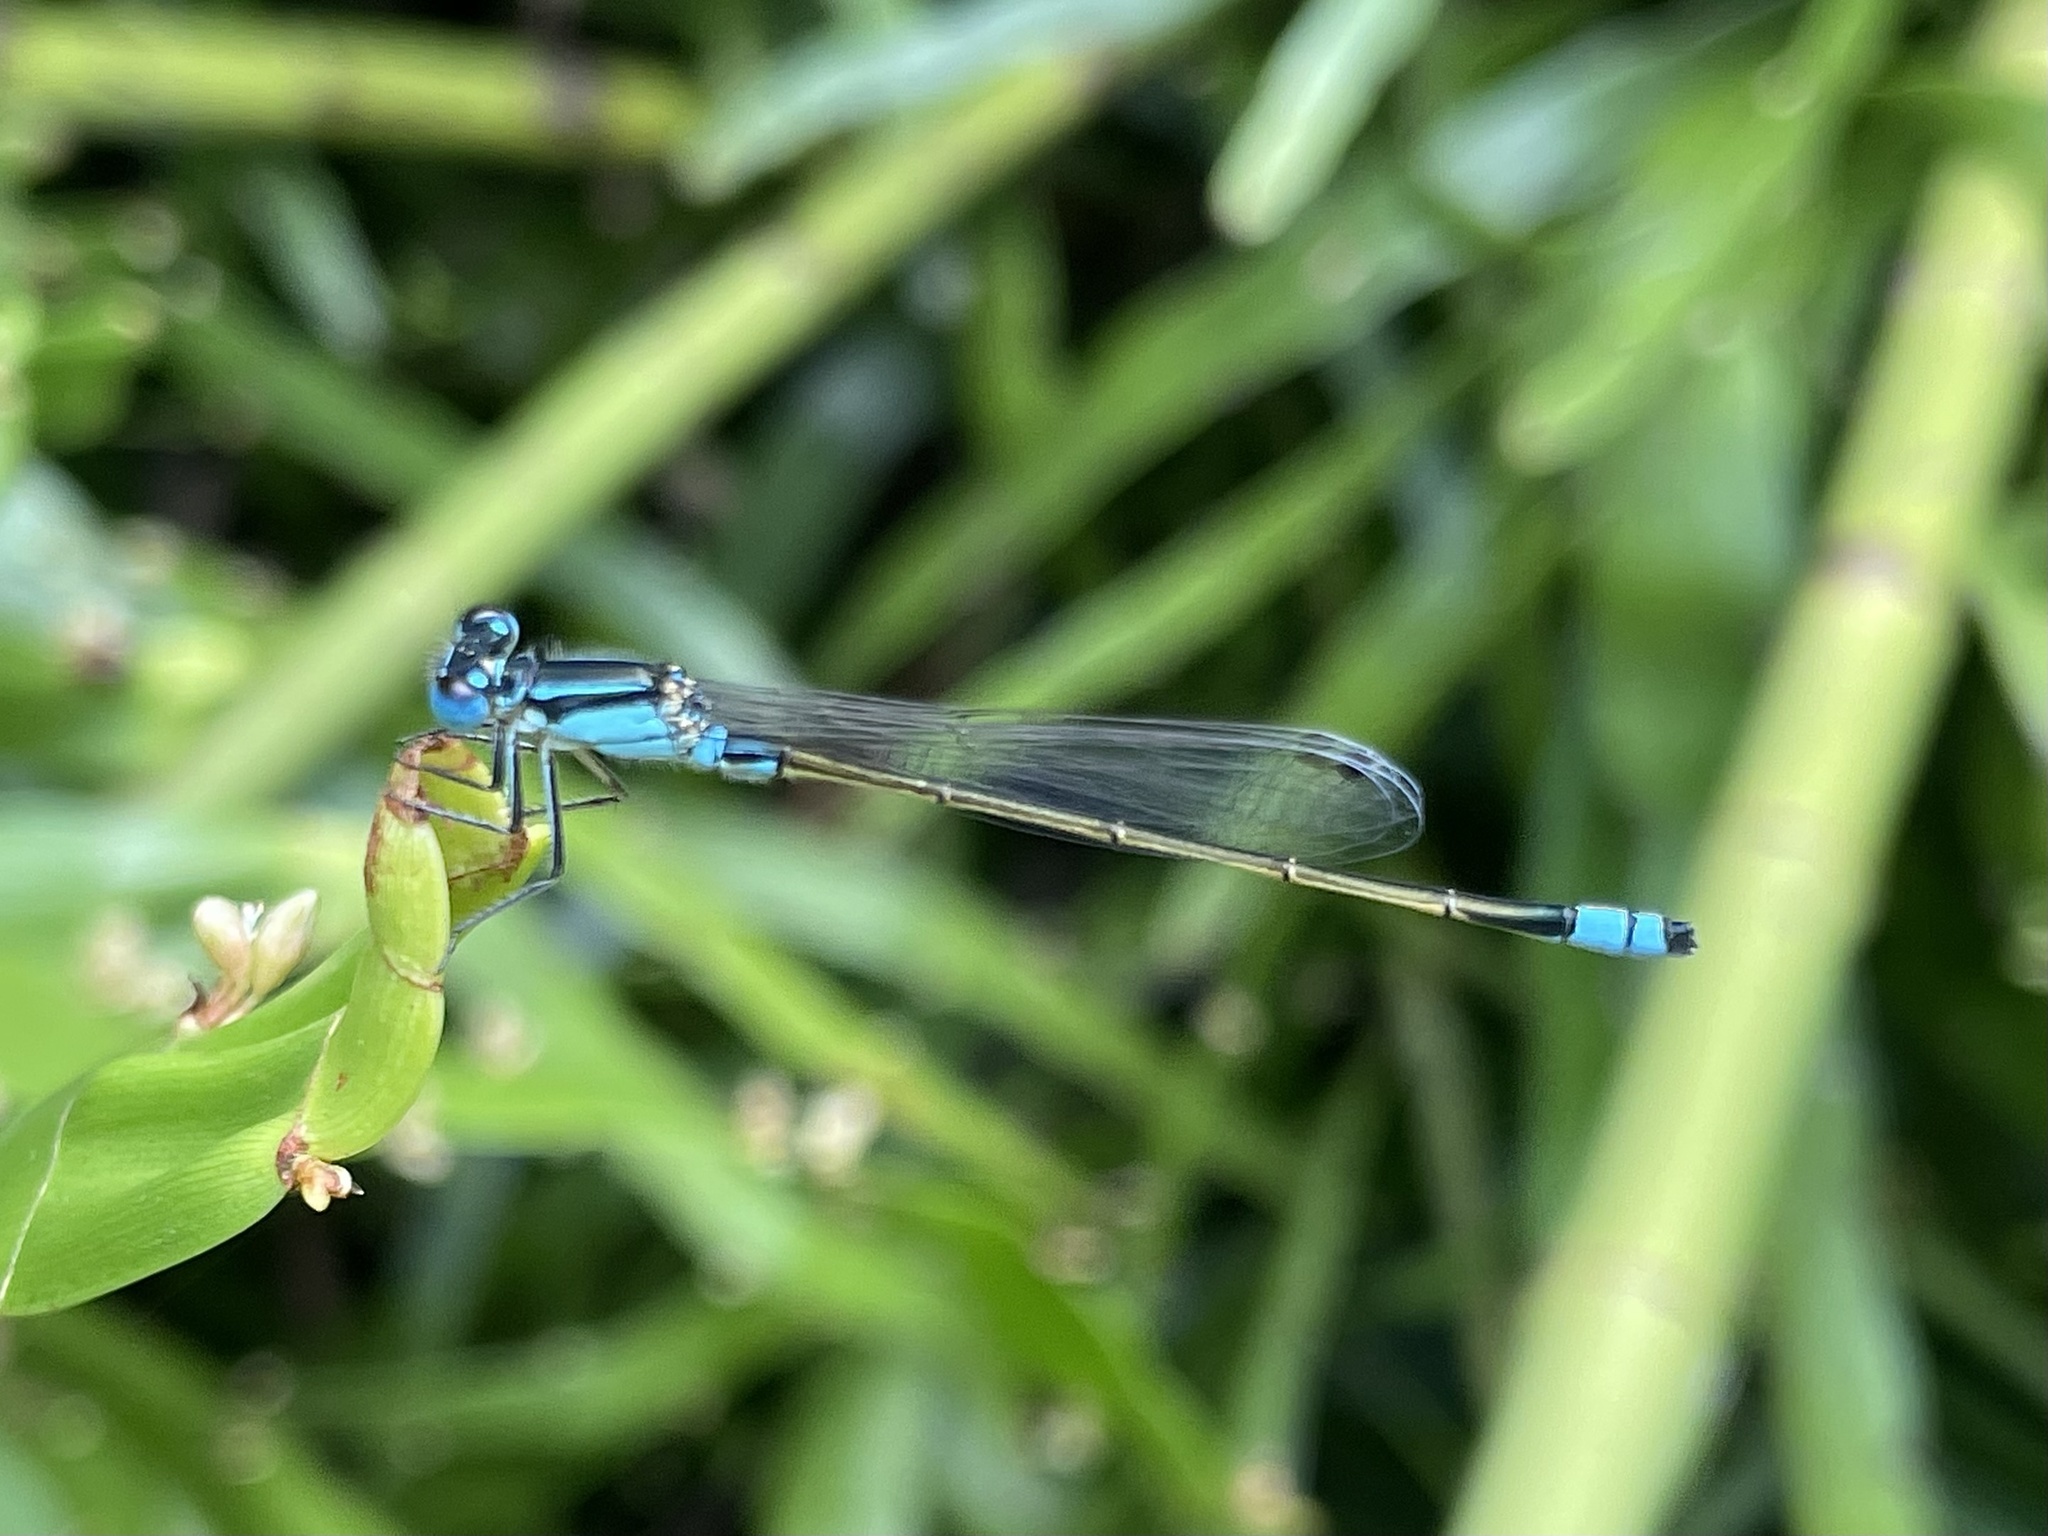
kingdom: Animalia
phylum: Arthropoda
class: Insecta
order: Odonata
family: Coenagrionidae
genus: Ischnura
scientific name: Ischnura heterosticta
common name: Common bluetail
